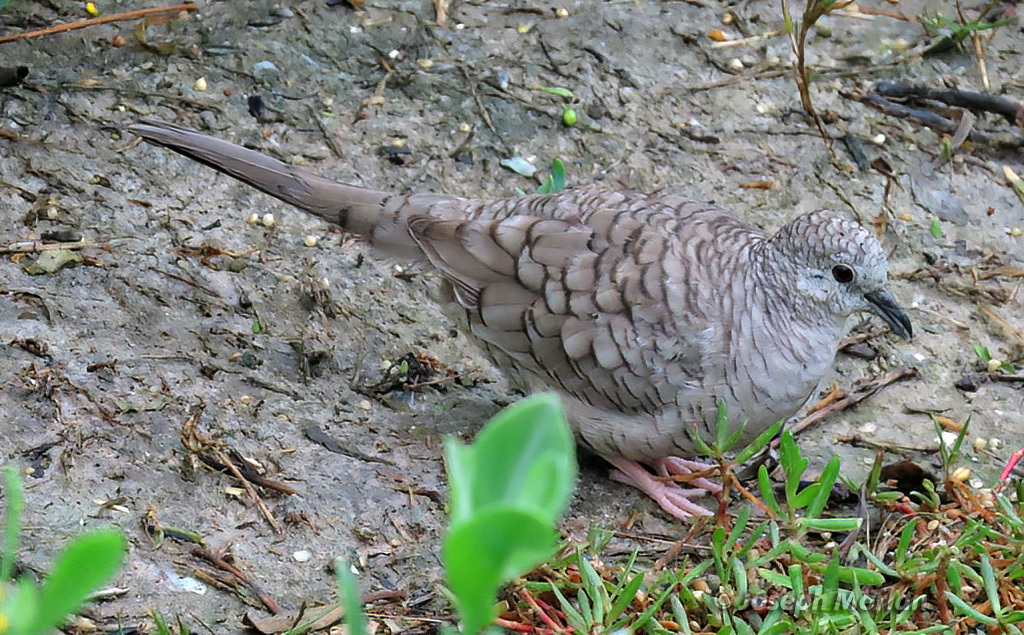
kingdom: Animalia
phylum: Chordata
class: Aves
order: Columbiformes
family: Columbidae
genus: Columbina
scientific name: Columbina inca
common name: Inca dove
